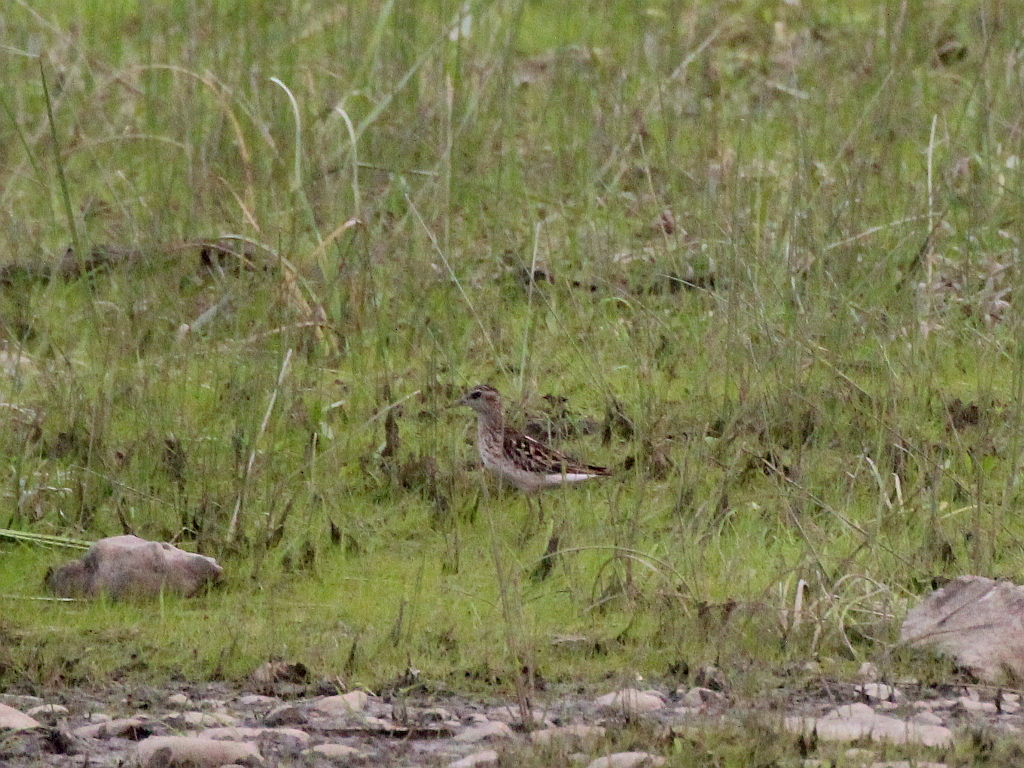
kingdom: Animalia
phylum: Chordata
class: Aves
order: Charadriiformes
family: Scolopacidae
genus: Calidris
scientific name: Calidris subminuta
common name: Long-toed stint
